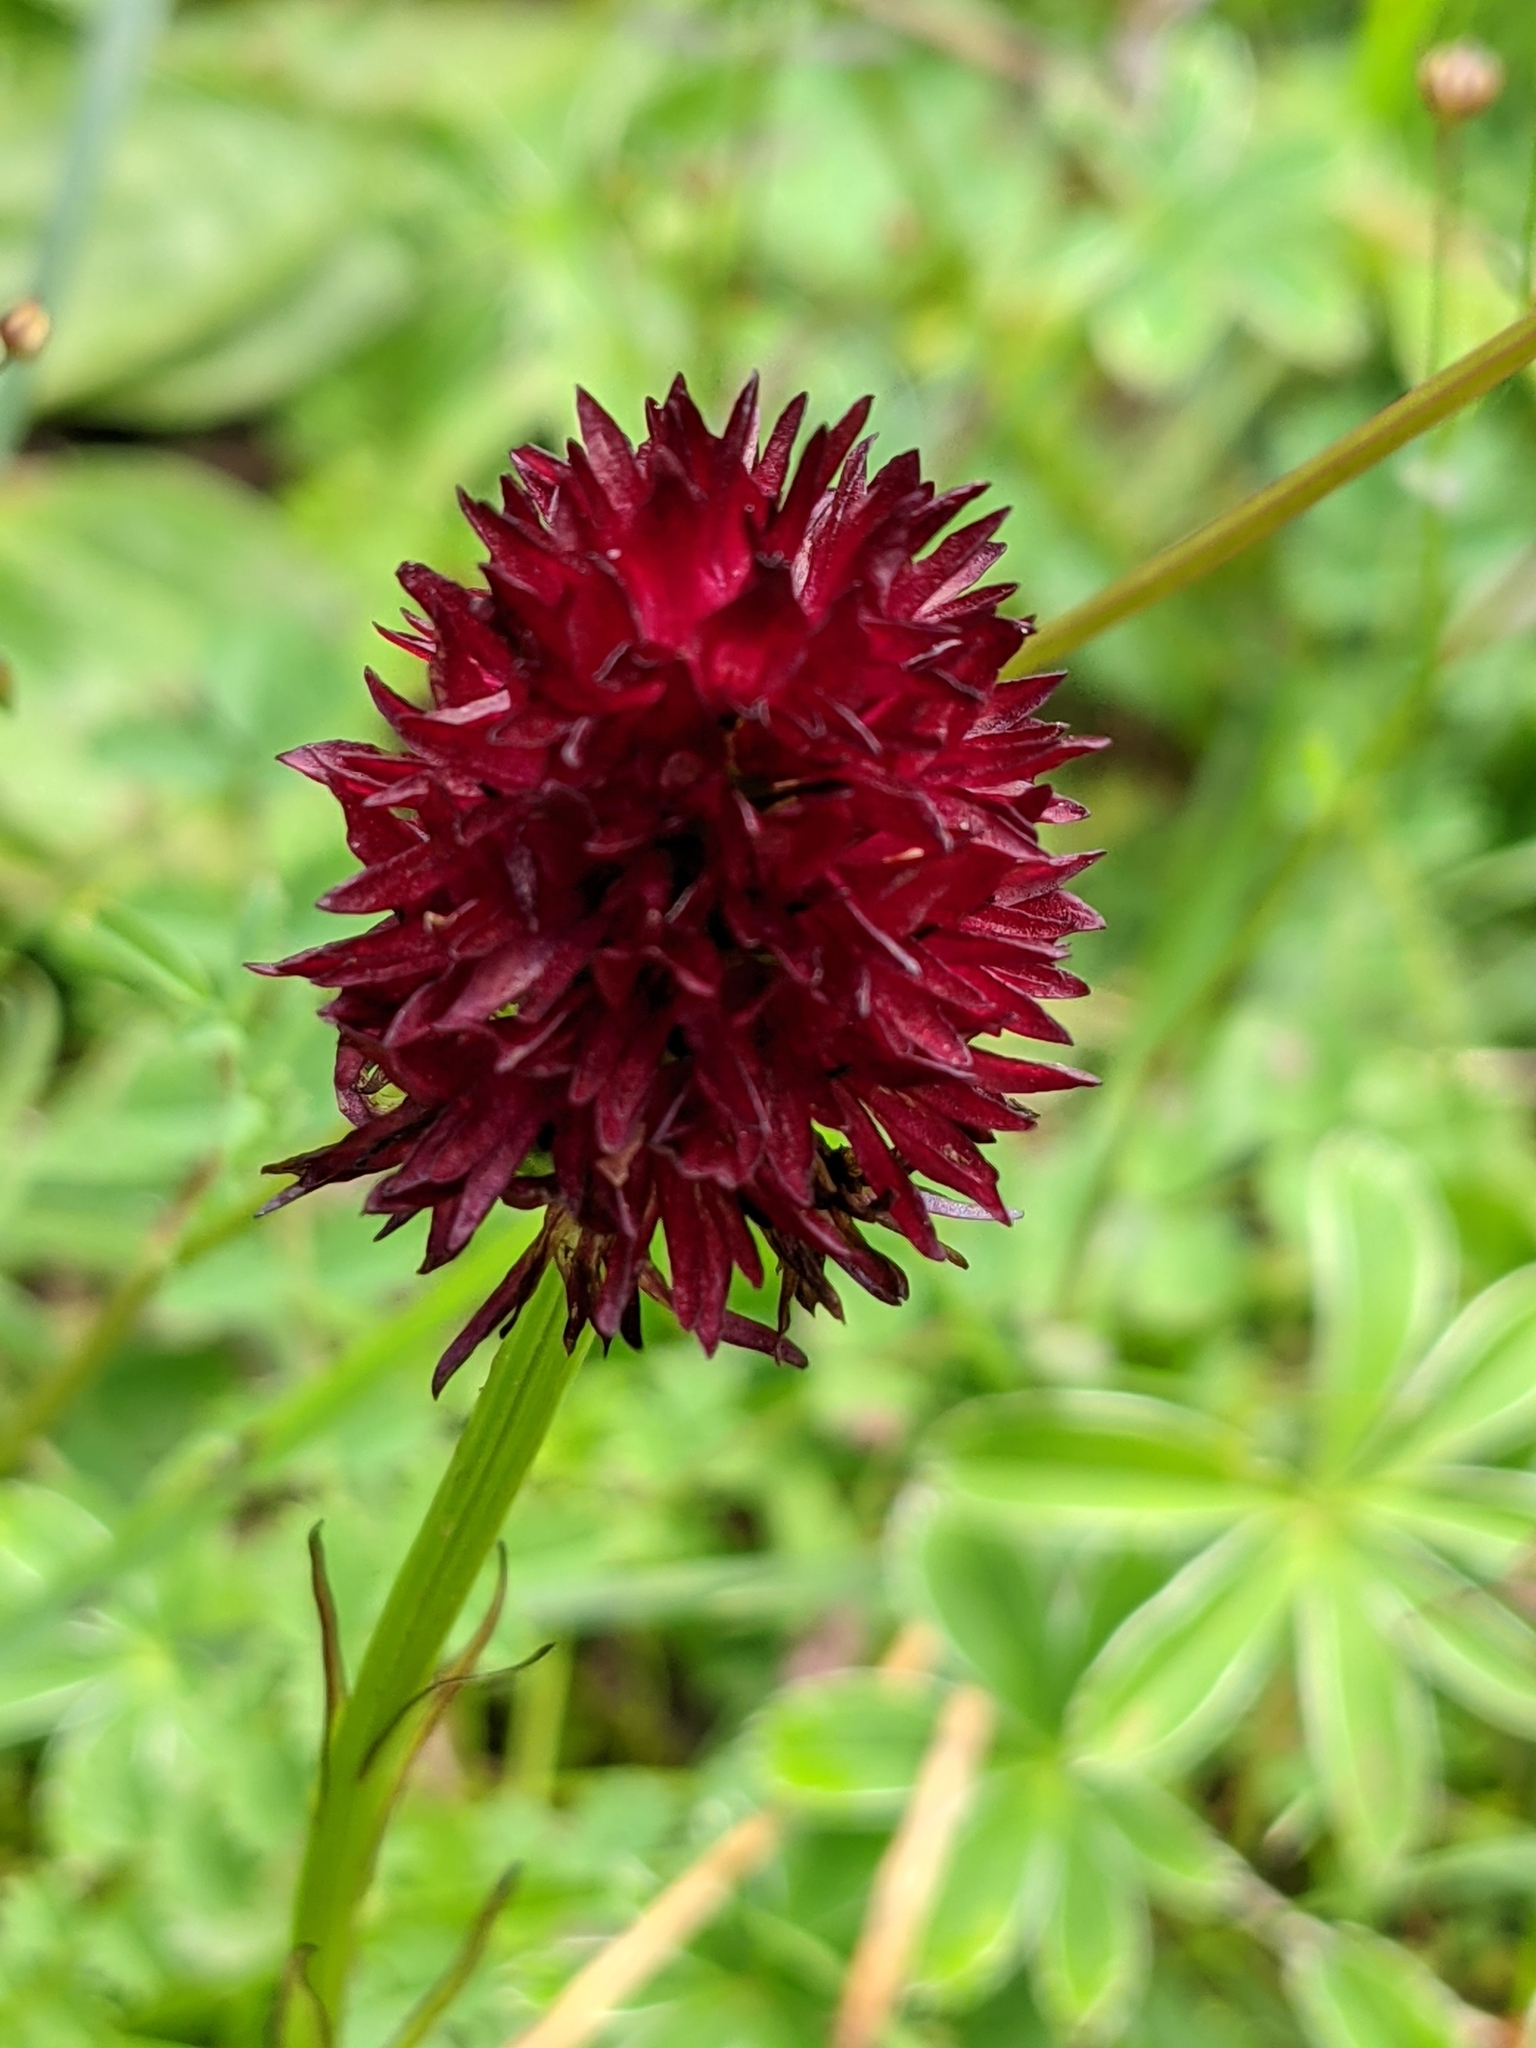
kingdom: Plantae
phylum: Tracheophyta
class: Liliopsida
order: Asparagales
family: Orchidaceae
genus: Gymnadenia
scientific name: Gymnadenia rhellicani
